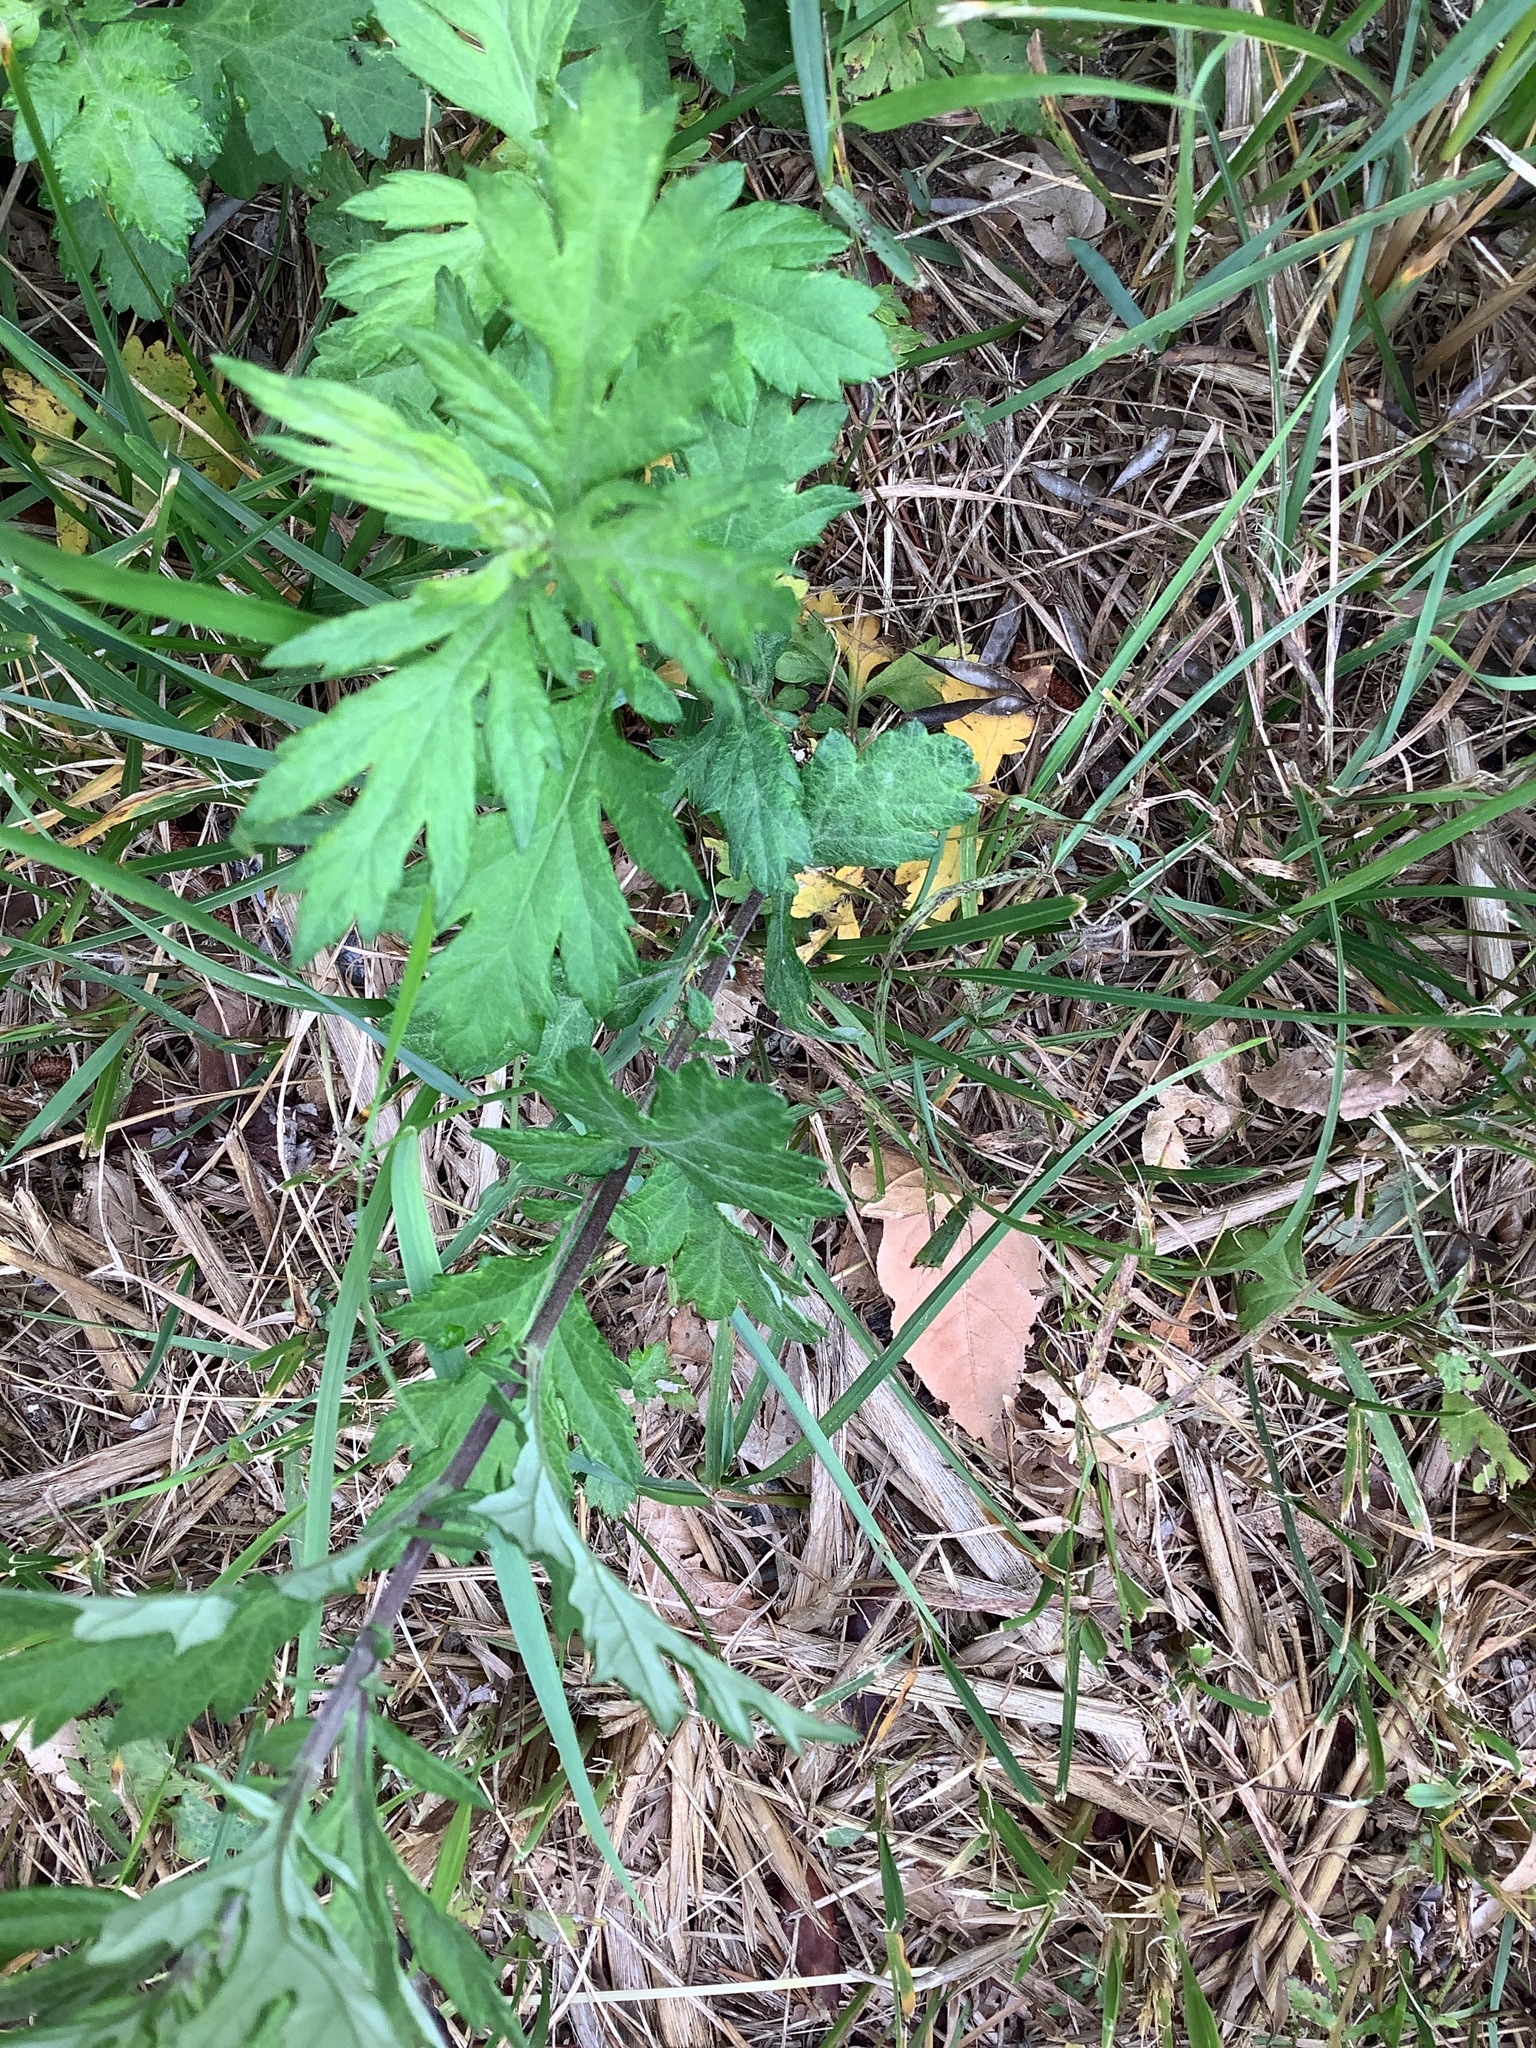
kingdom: Plantae
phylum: Tracheophyta
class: Magnoliopsida
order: Asterales
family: Asteraceae
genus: Artemisia
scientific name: Artemisia vulgaris
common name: Mugwort
